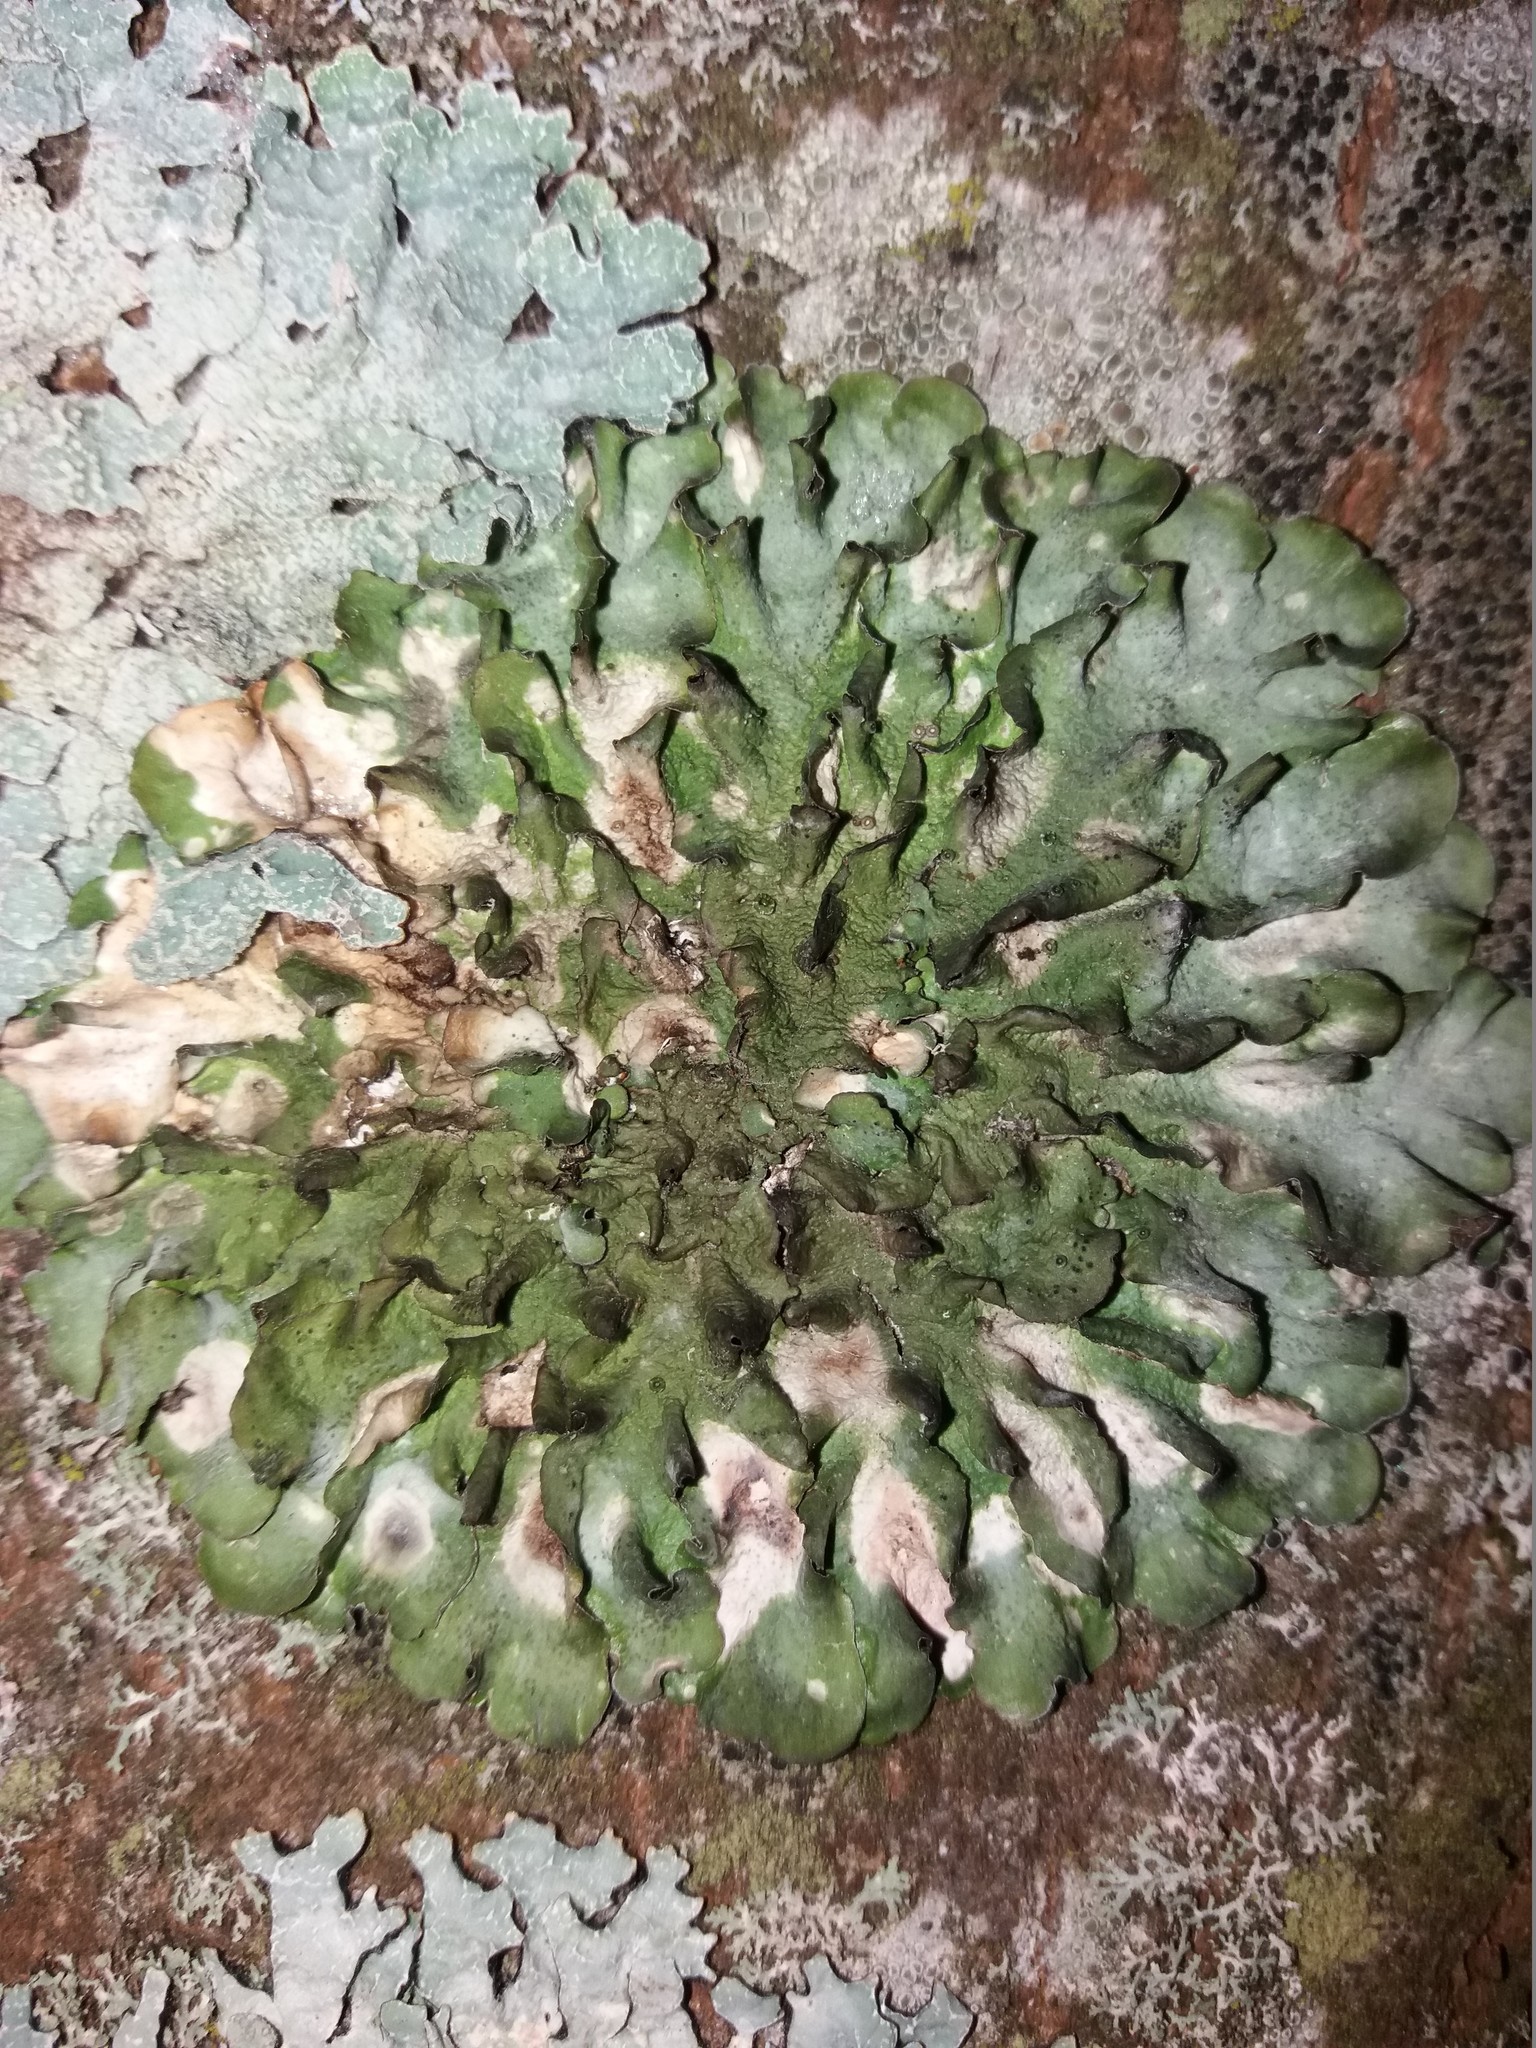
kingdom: Fungi
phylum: Ascomycota
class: Lecanoromycetes
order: Lecanorales
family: Parmeliaceae
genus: Pleurosticta
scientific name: Pleurosticta acetabulum
